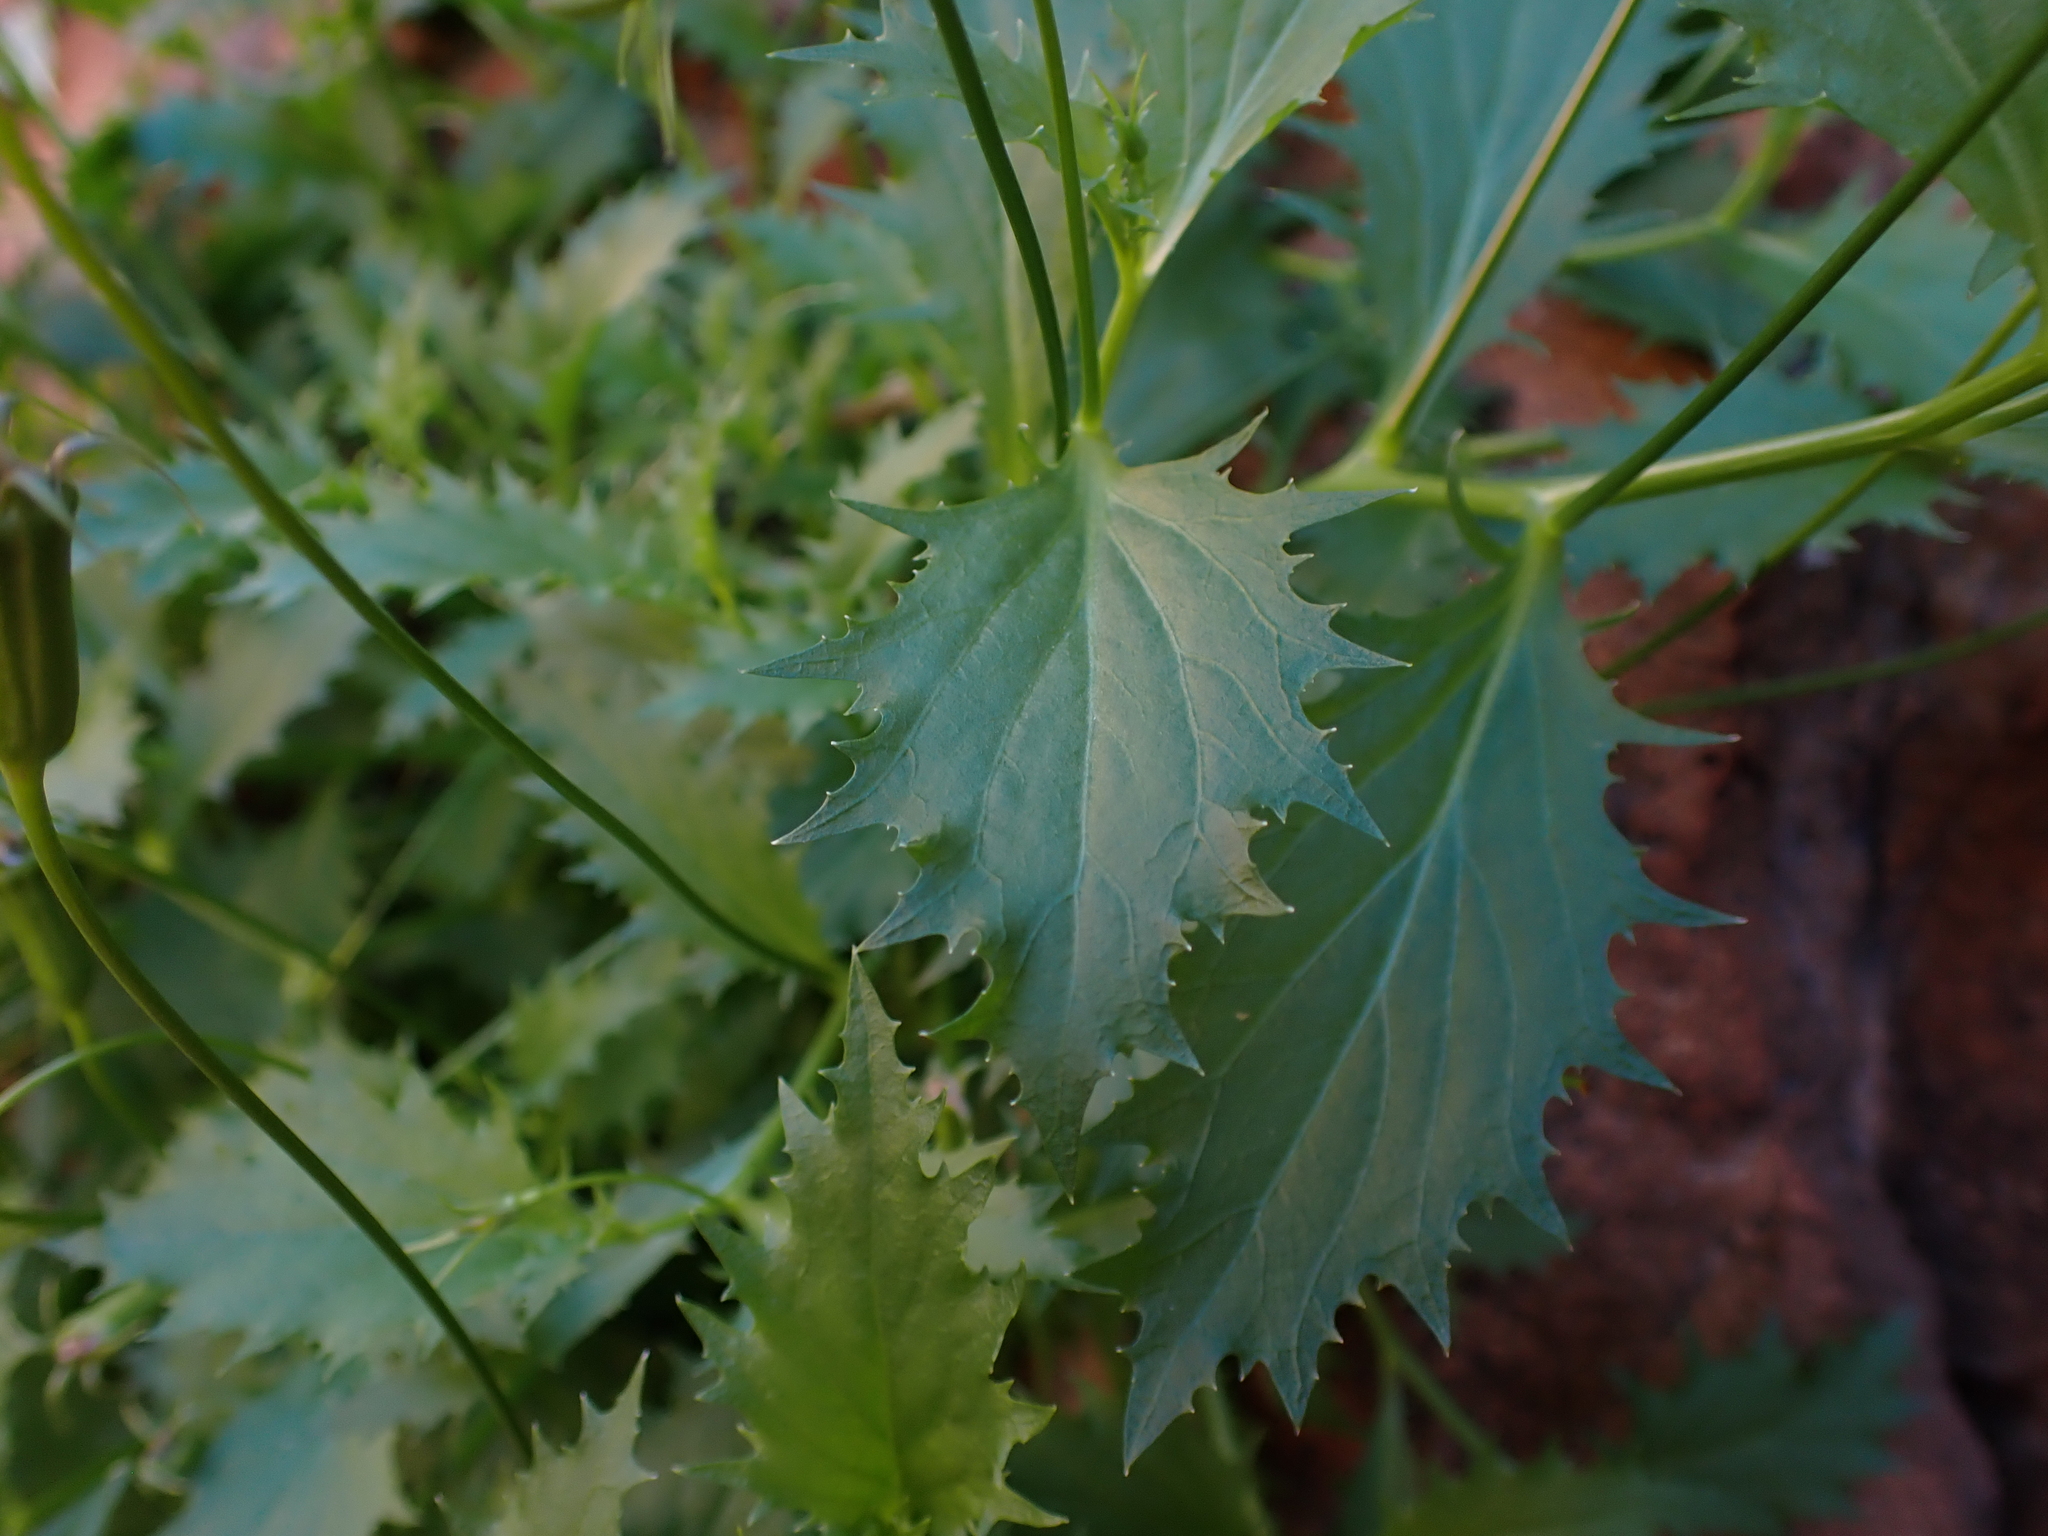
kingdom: Plantae
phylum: Tracheophyta
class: Magnoliopsida
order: Asterales
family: Campanulaceae
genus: Lithotoma
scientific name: Lithotoma petraea
